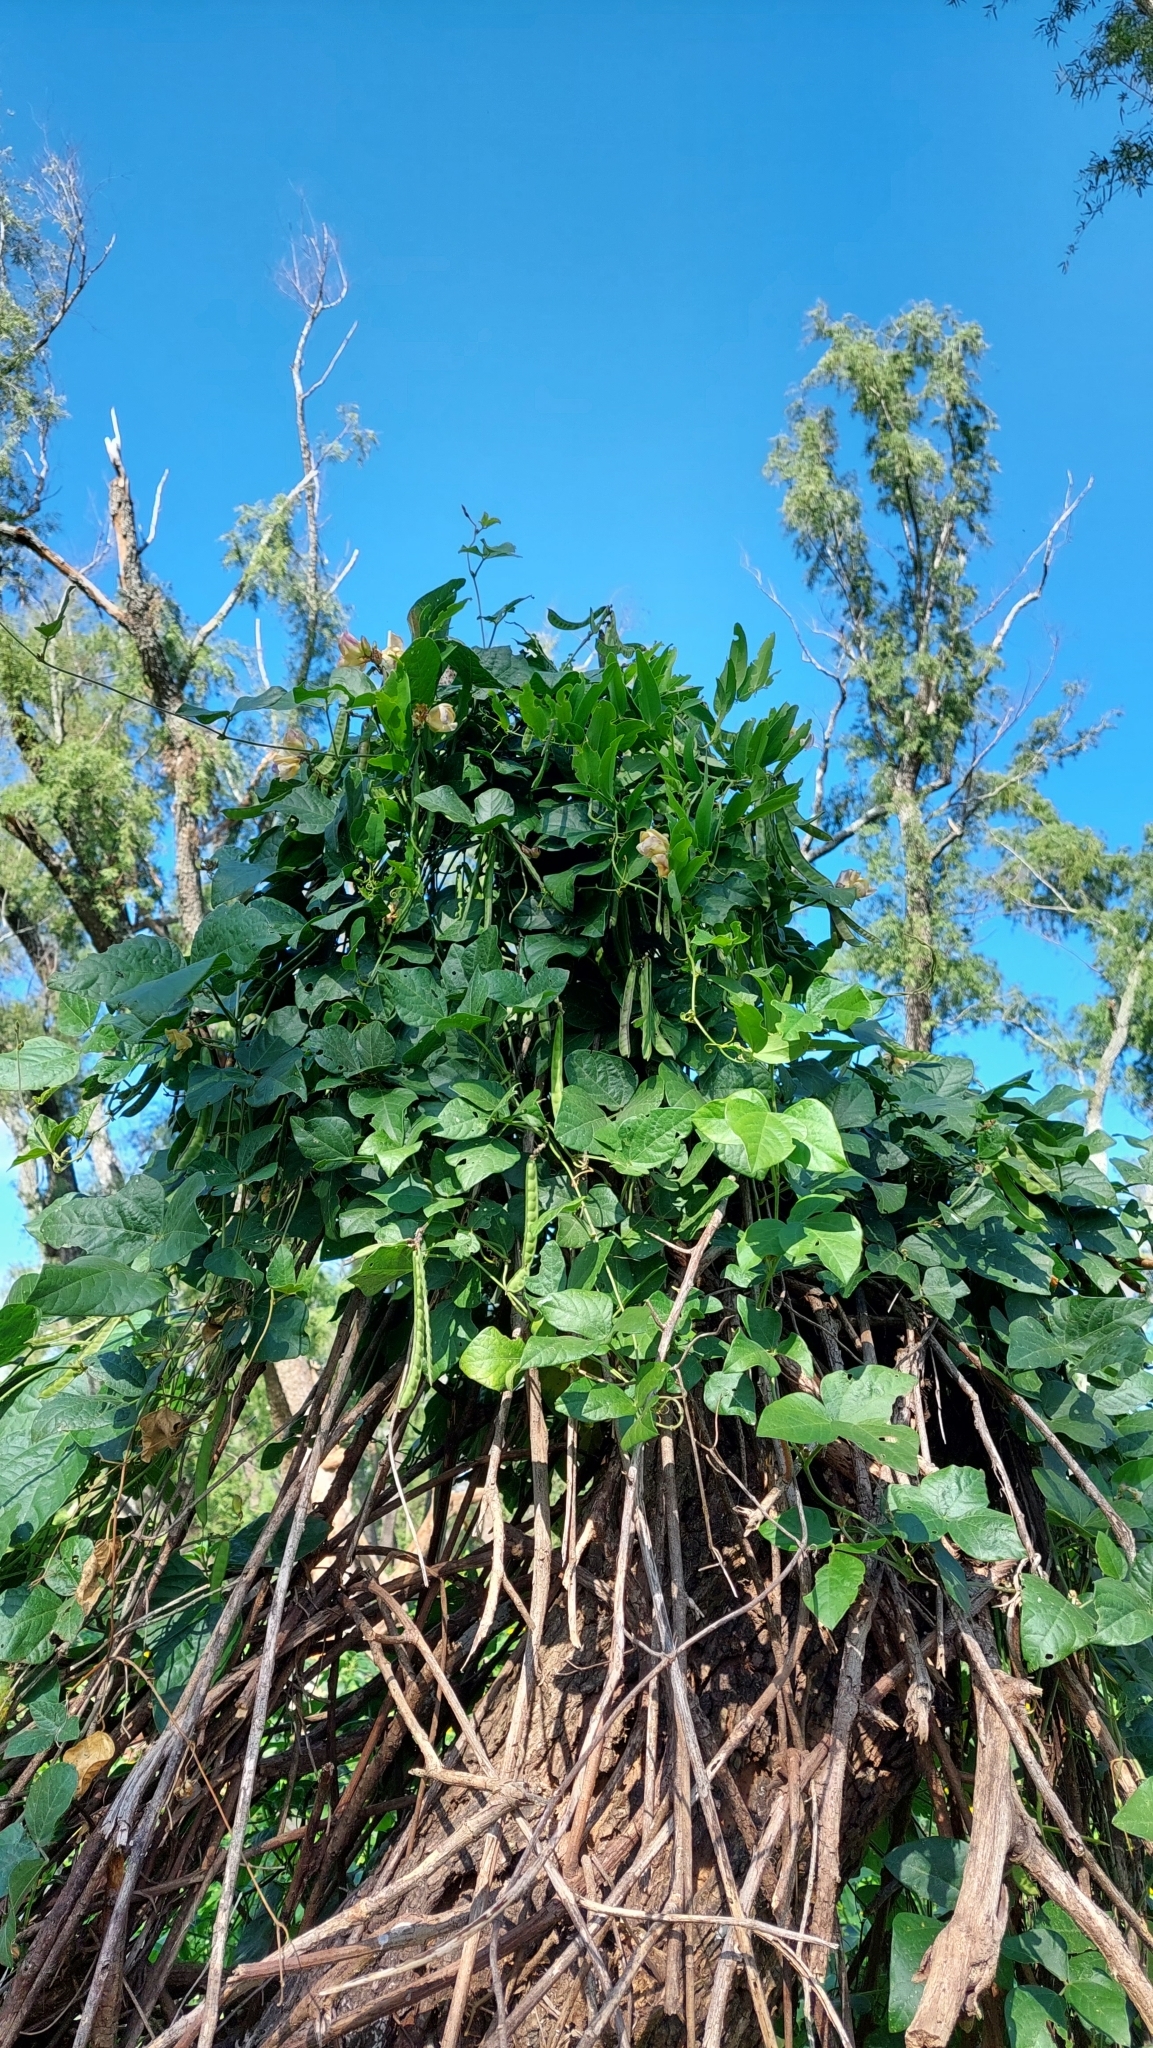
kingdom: Plantae
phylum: Tracheophyta
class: Magnoliopsida
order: Fabales
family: Fabaceae
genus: Leptospron
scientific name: Leptospron adenanthum
